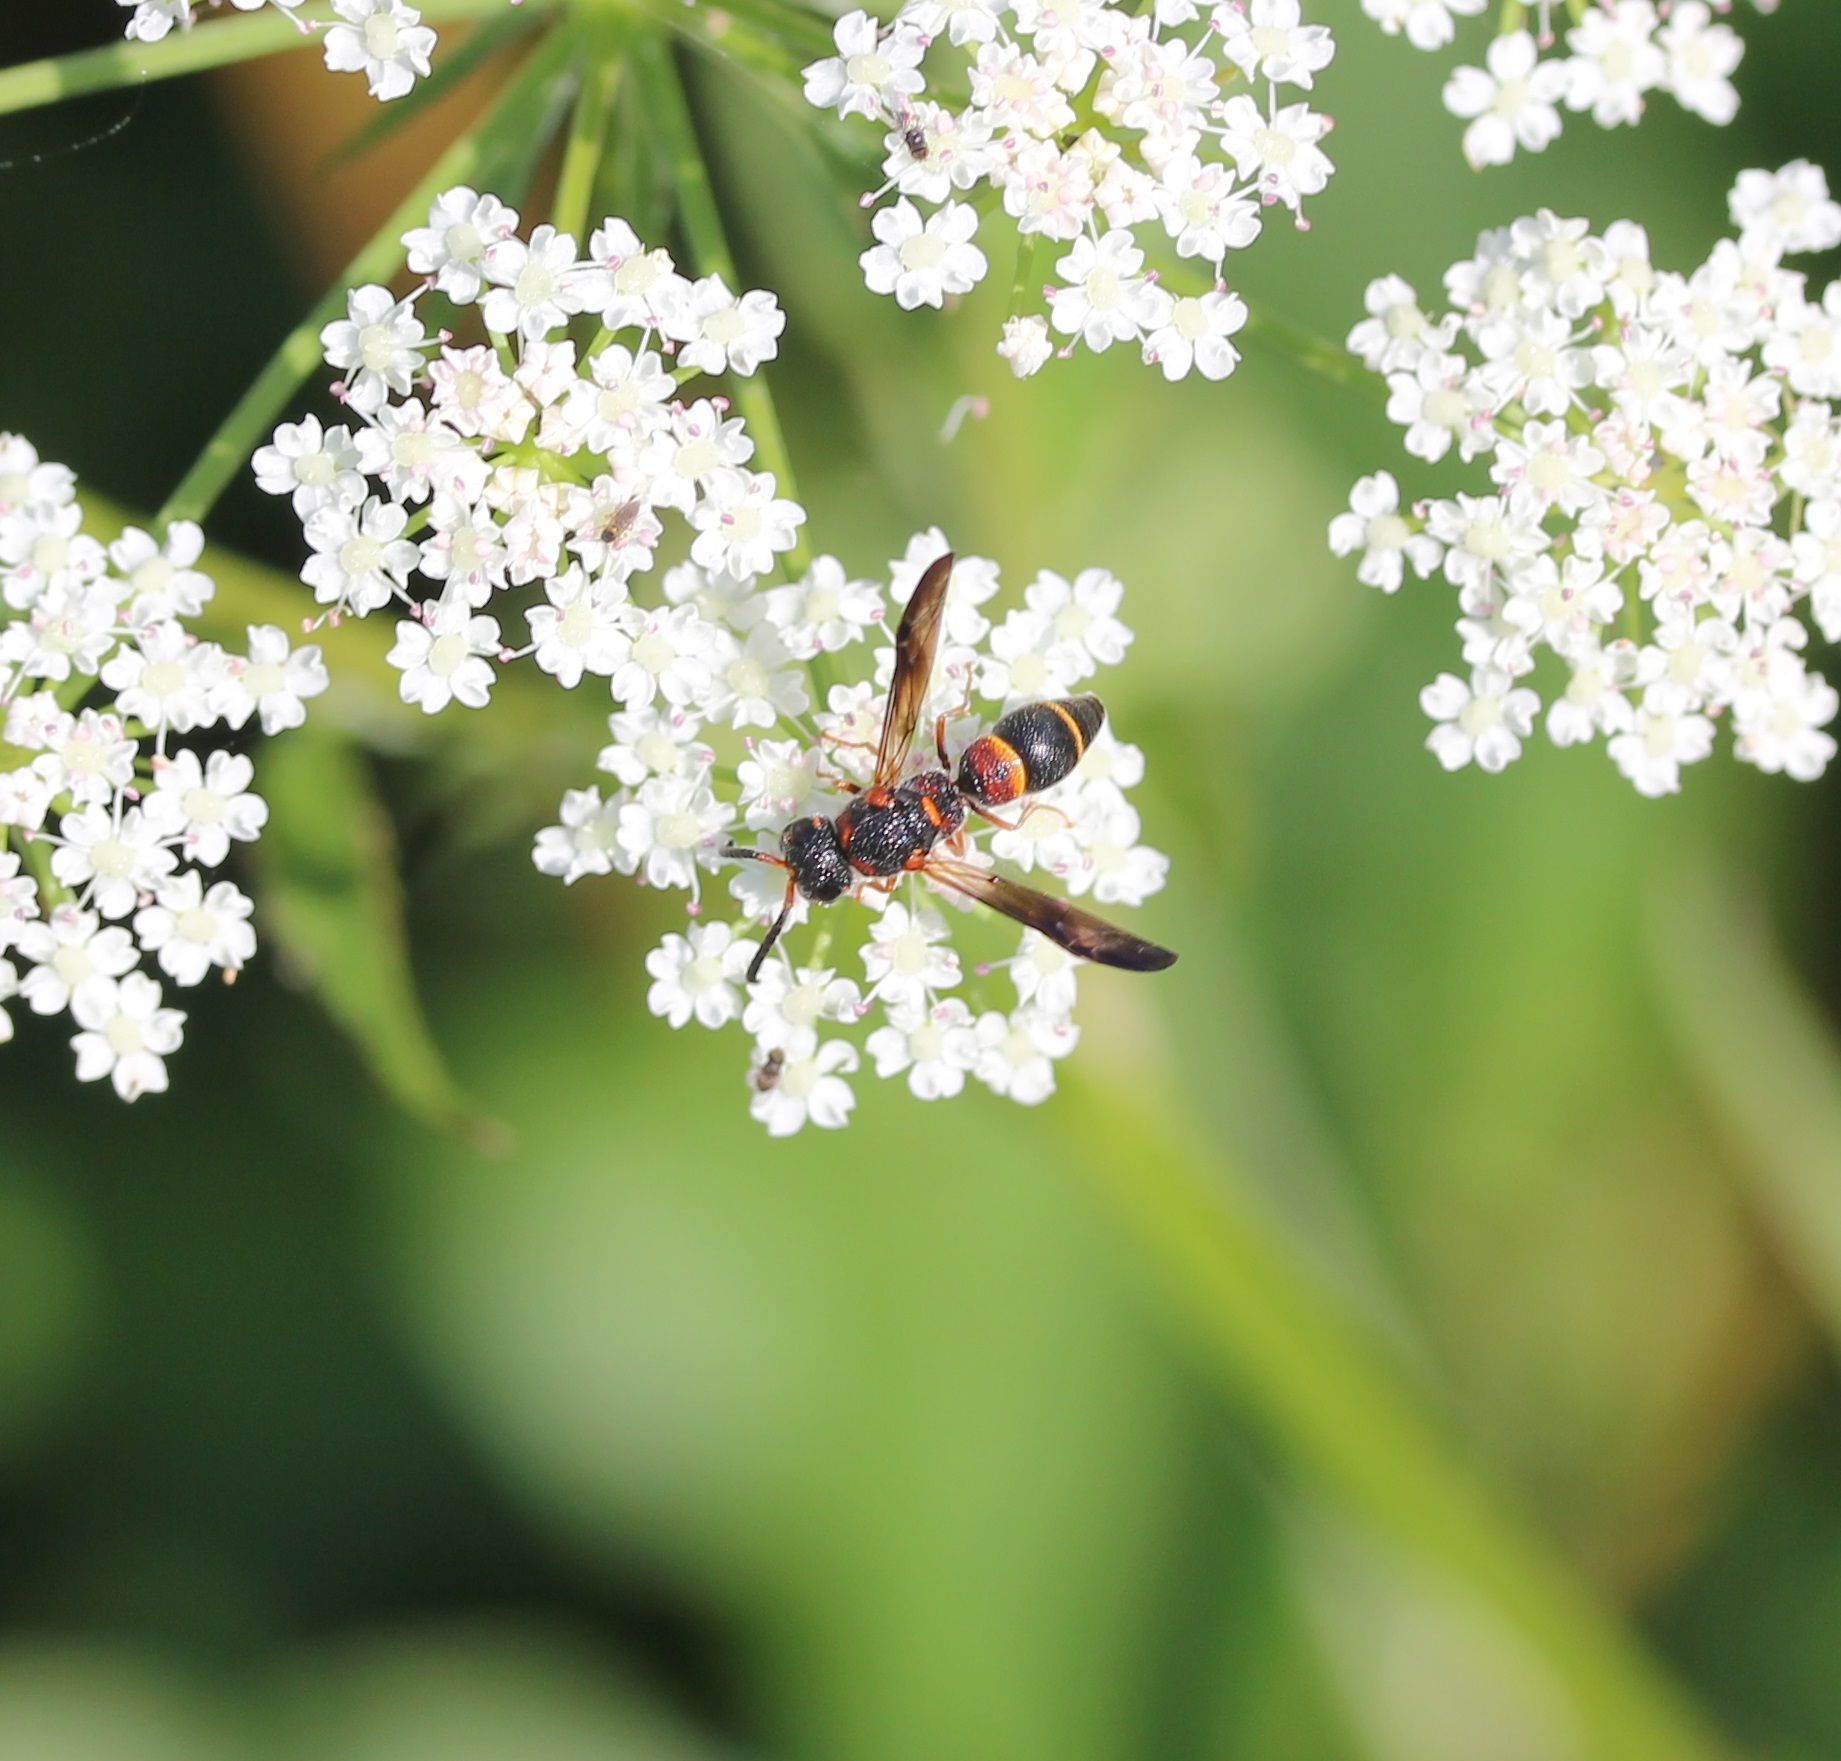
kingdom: Animalia
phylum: Arthropoda
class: Insecta
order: Hymenoptera
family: Eumenidae
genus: Rhynchalastor
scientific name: Rhynchalastor lineatifrons
